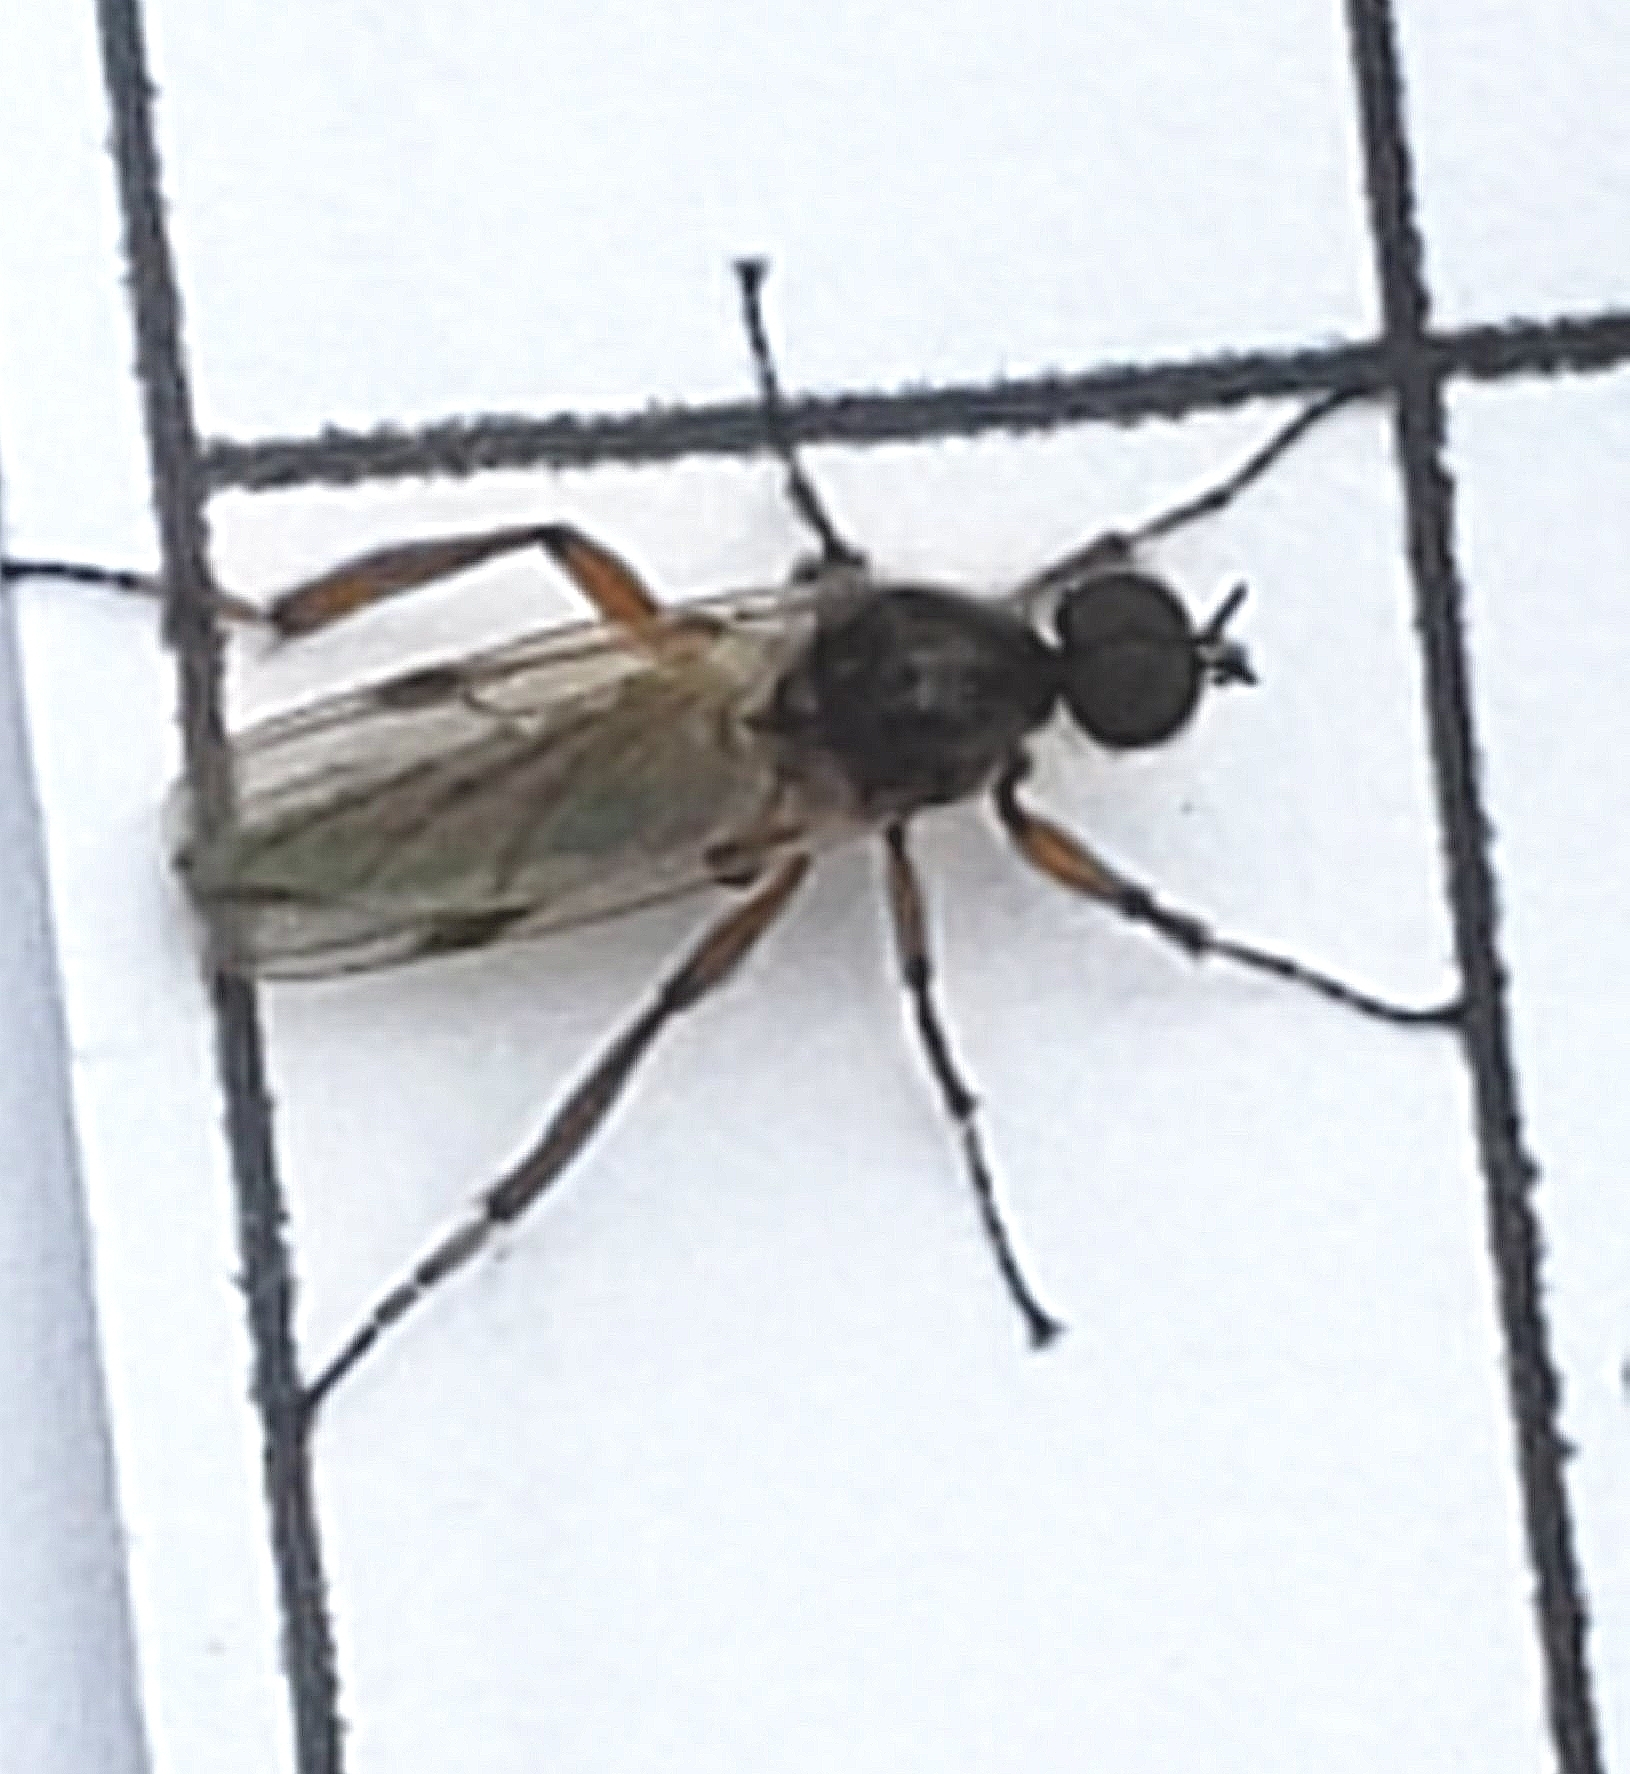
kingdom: Animalia
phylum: Arthropoda
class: Insecta
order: Diptera
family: Bibionidae
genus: Bibio
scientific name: Bibio articulatus
